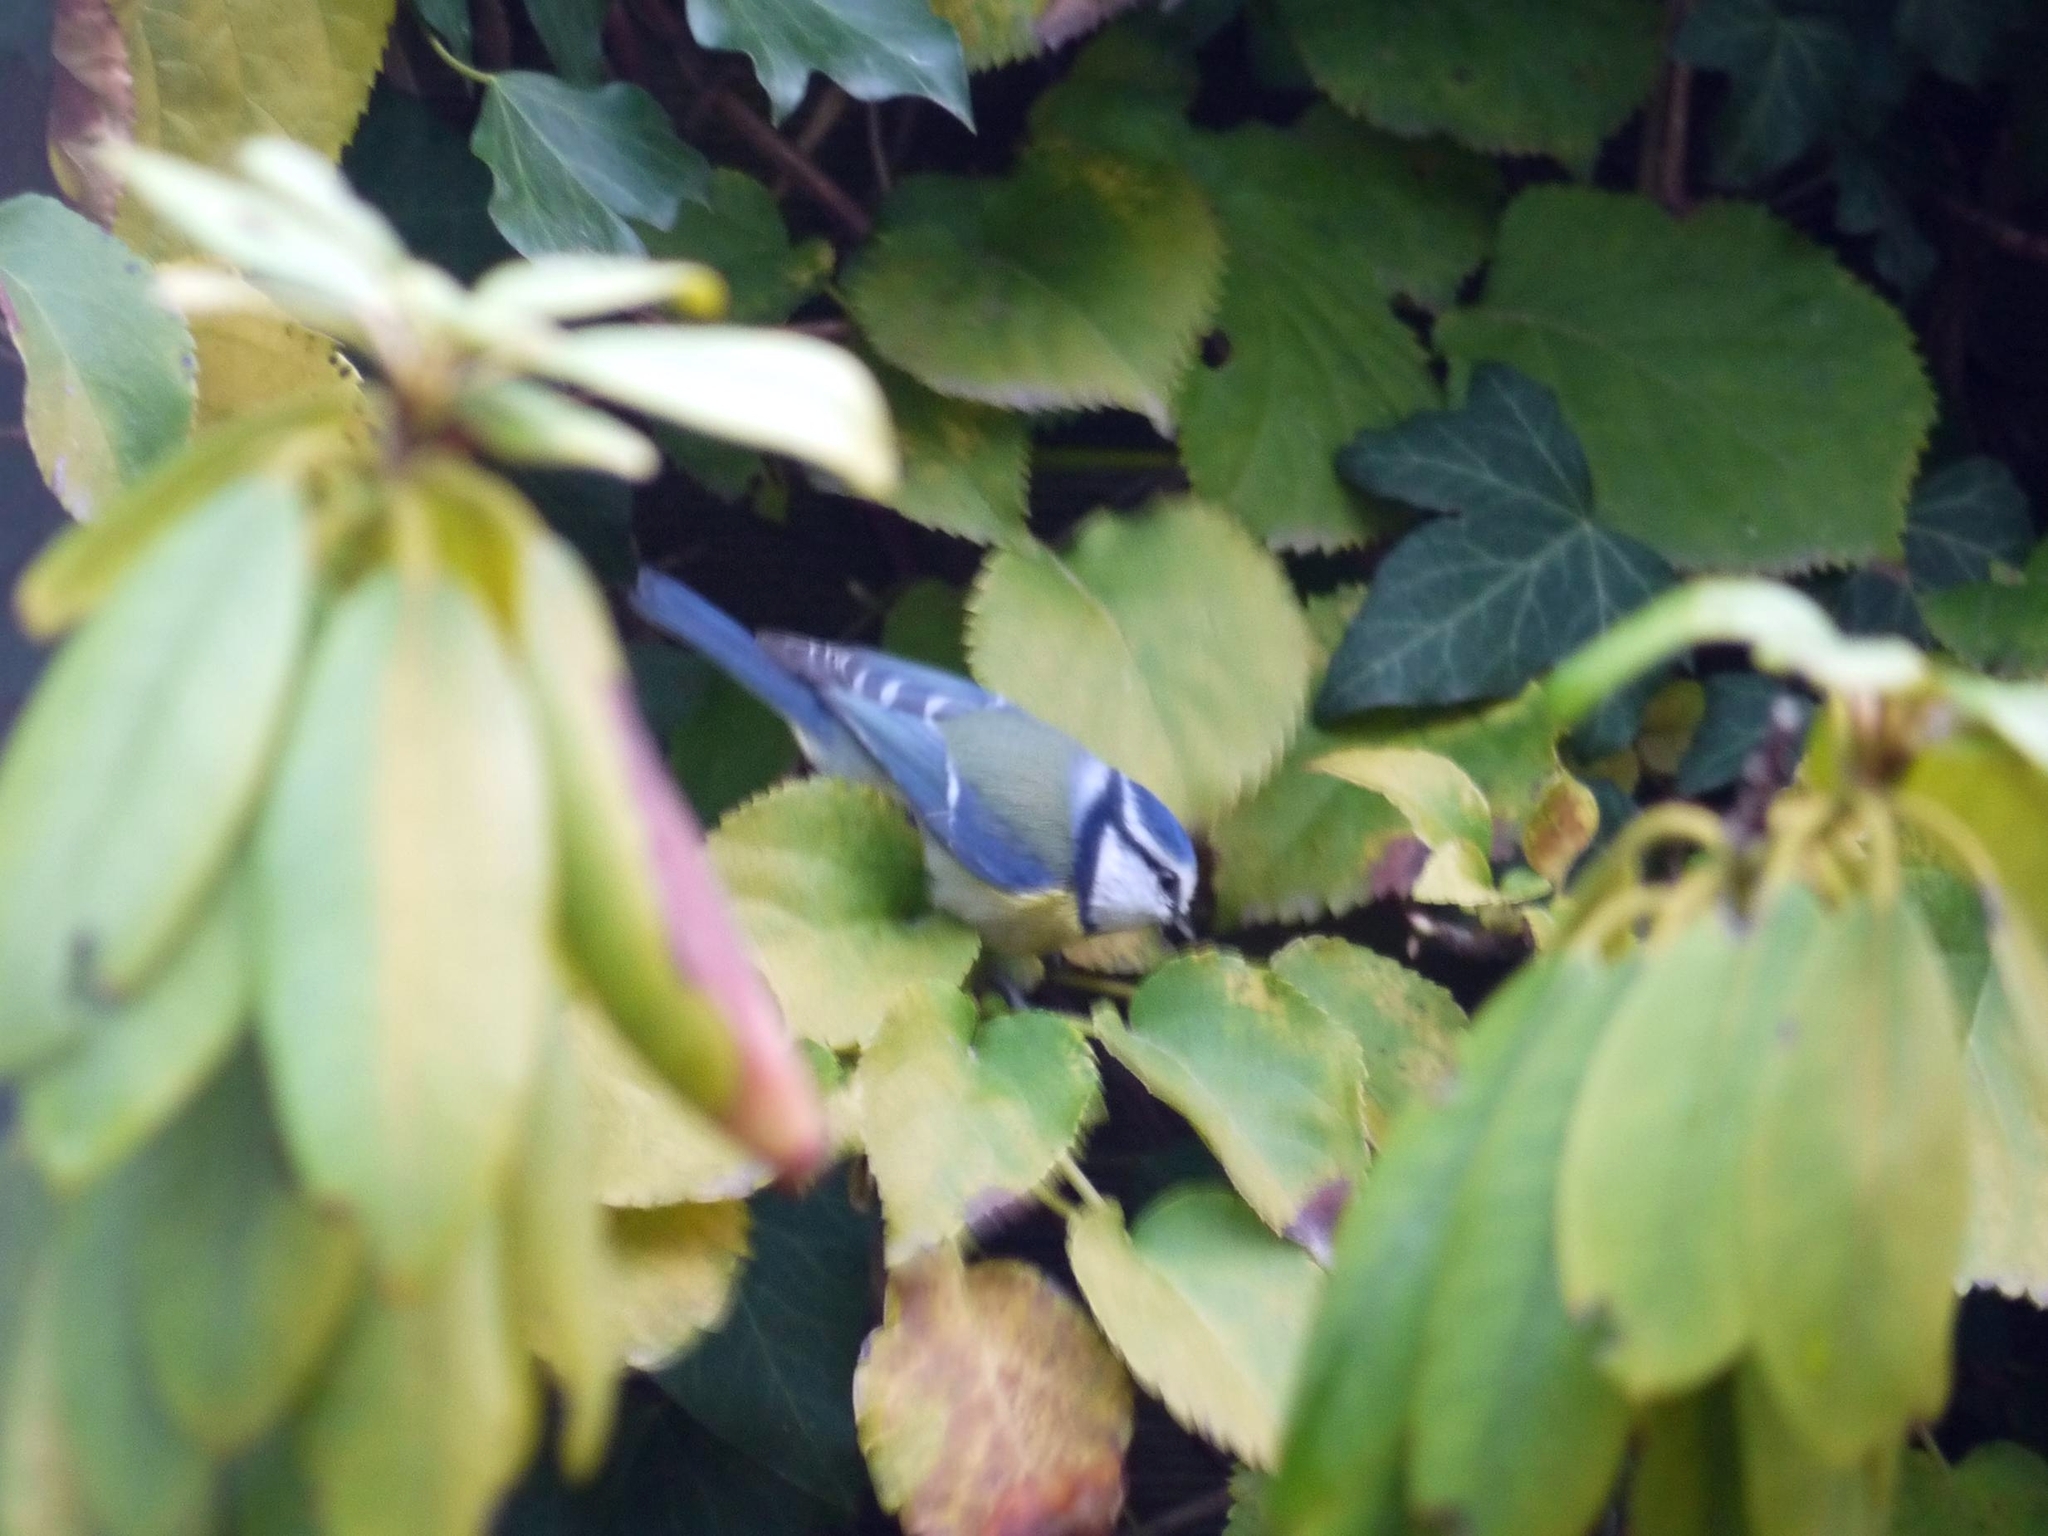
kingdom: Animalia
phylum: Chordata
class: Aves
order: Passeriformes
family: Paridae
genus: Cyanistes
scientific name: Cyanistes caeruleus
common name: Eurasian blue tit
